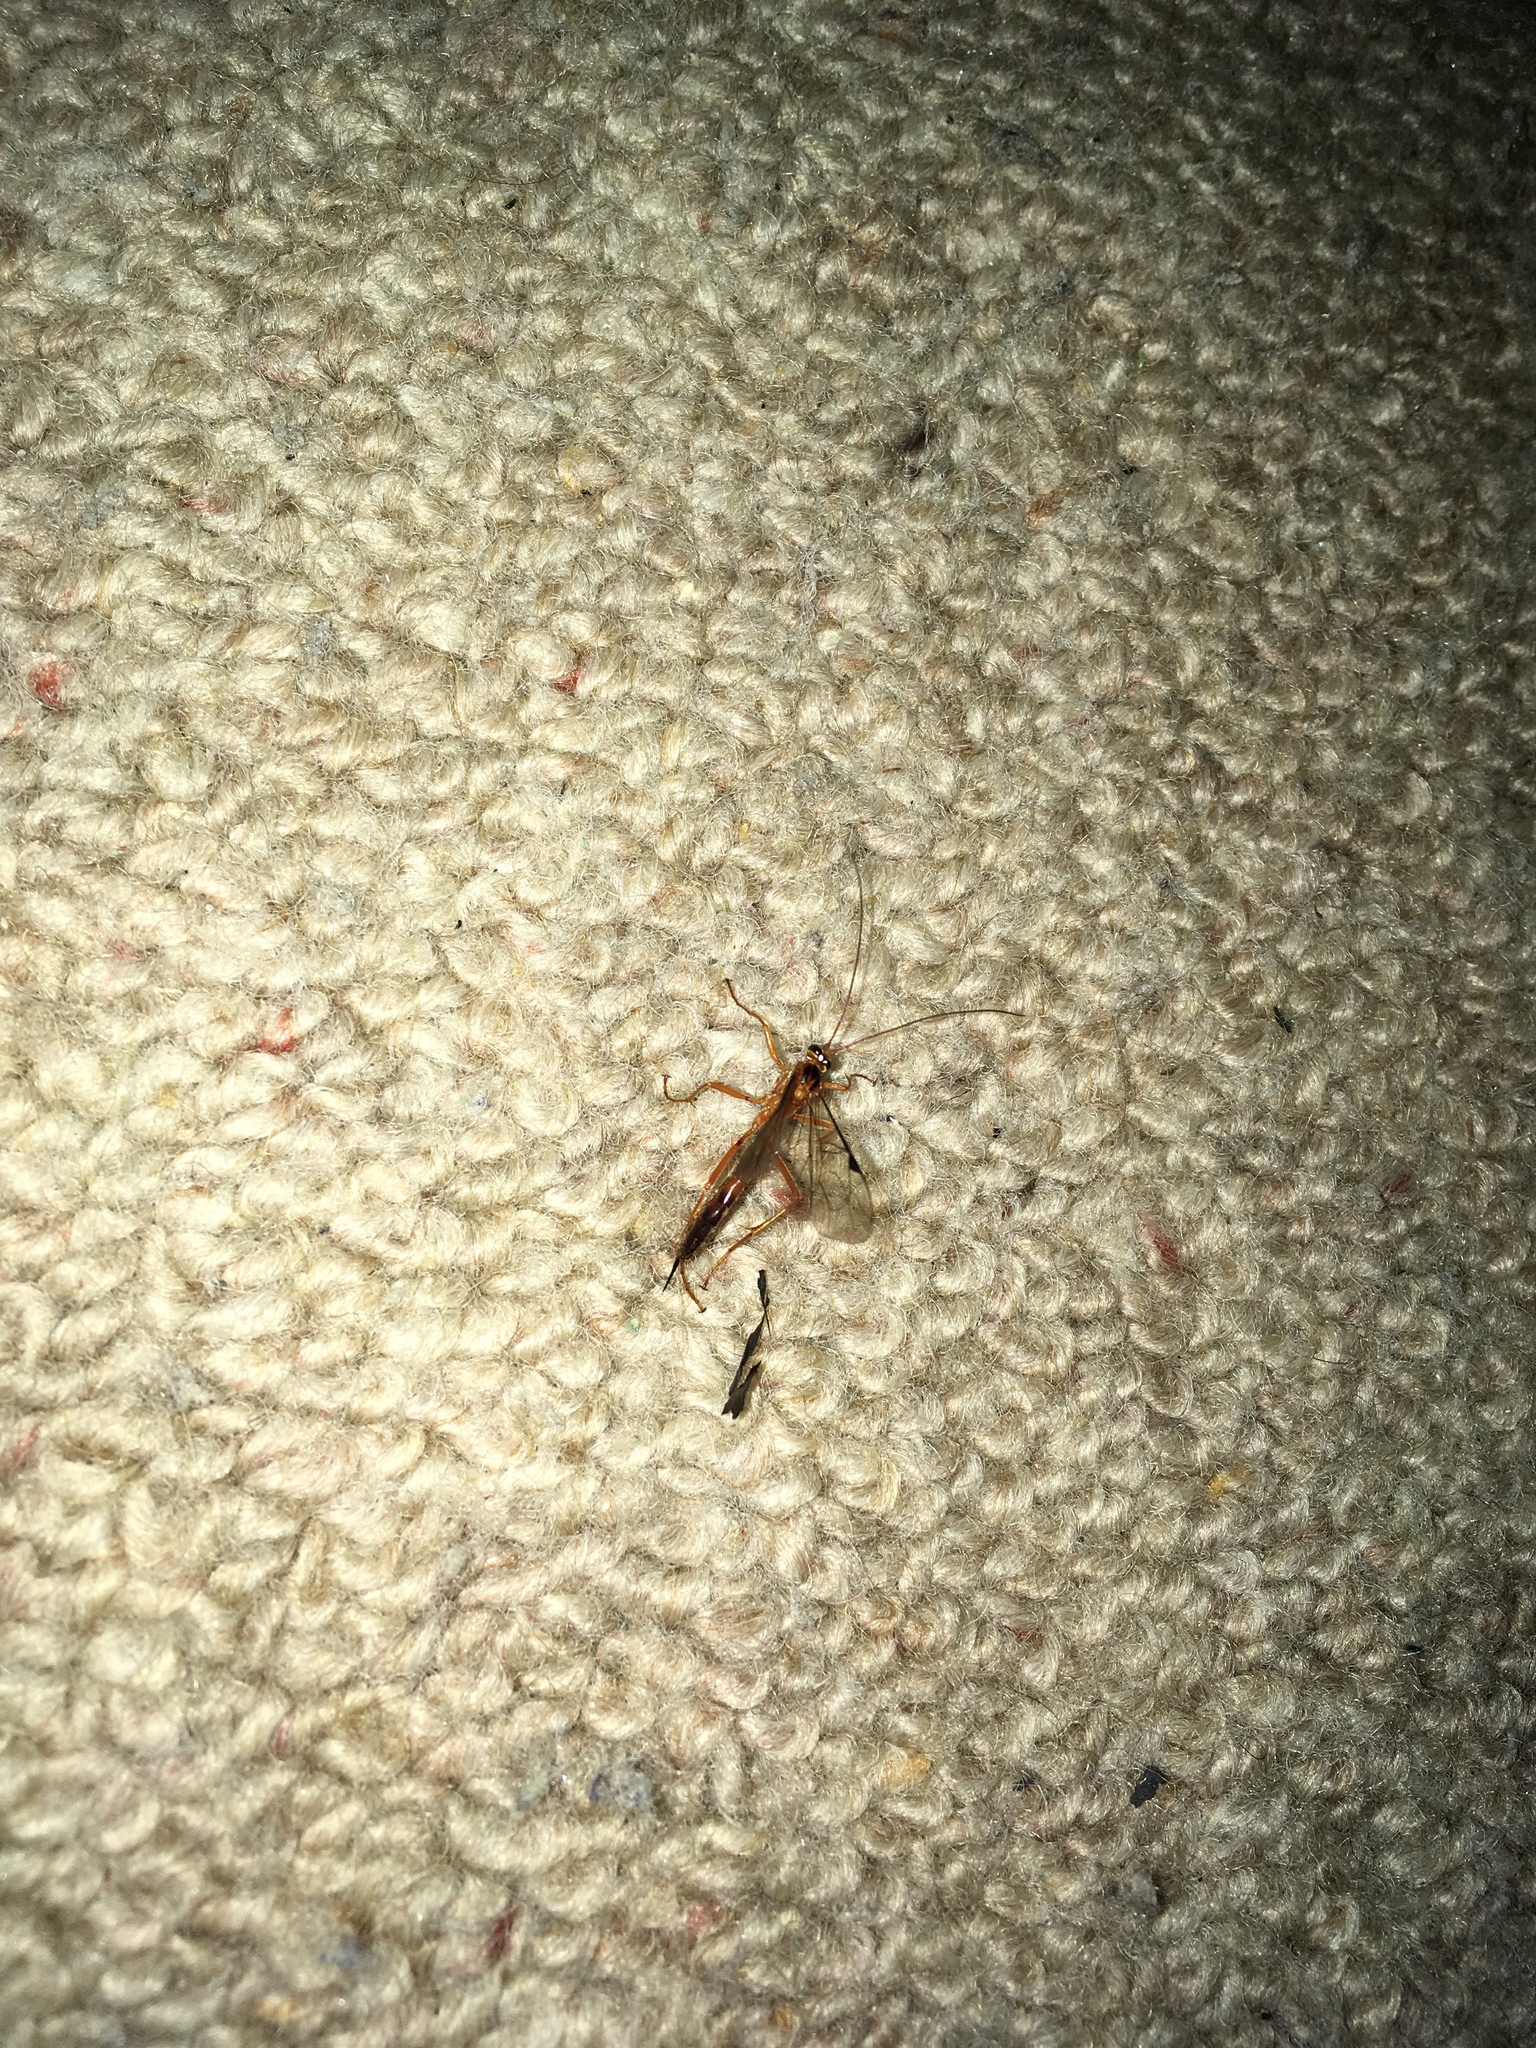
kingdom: Animalia
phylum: Arthropoda
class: Insecta
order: Hymenoptera
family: Ichneumonidae
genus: Netelia
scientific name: Netelia ephippiata
